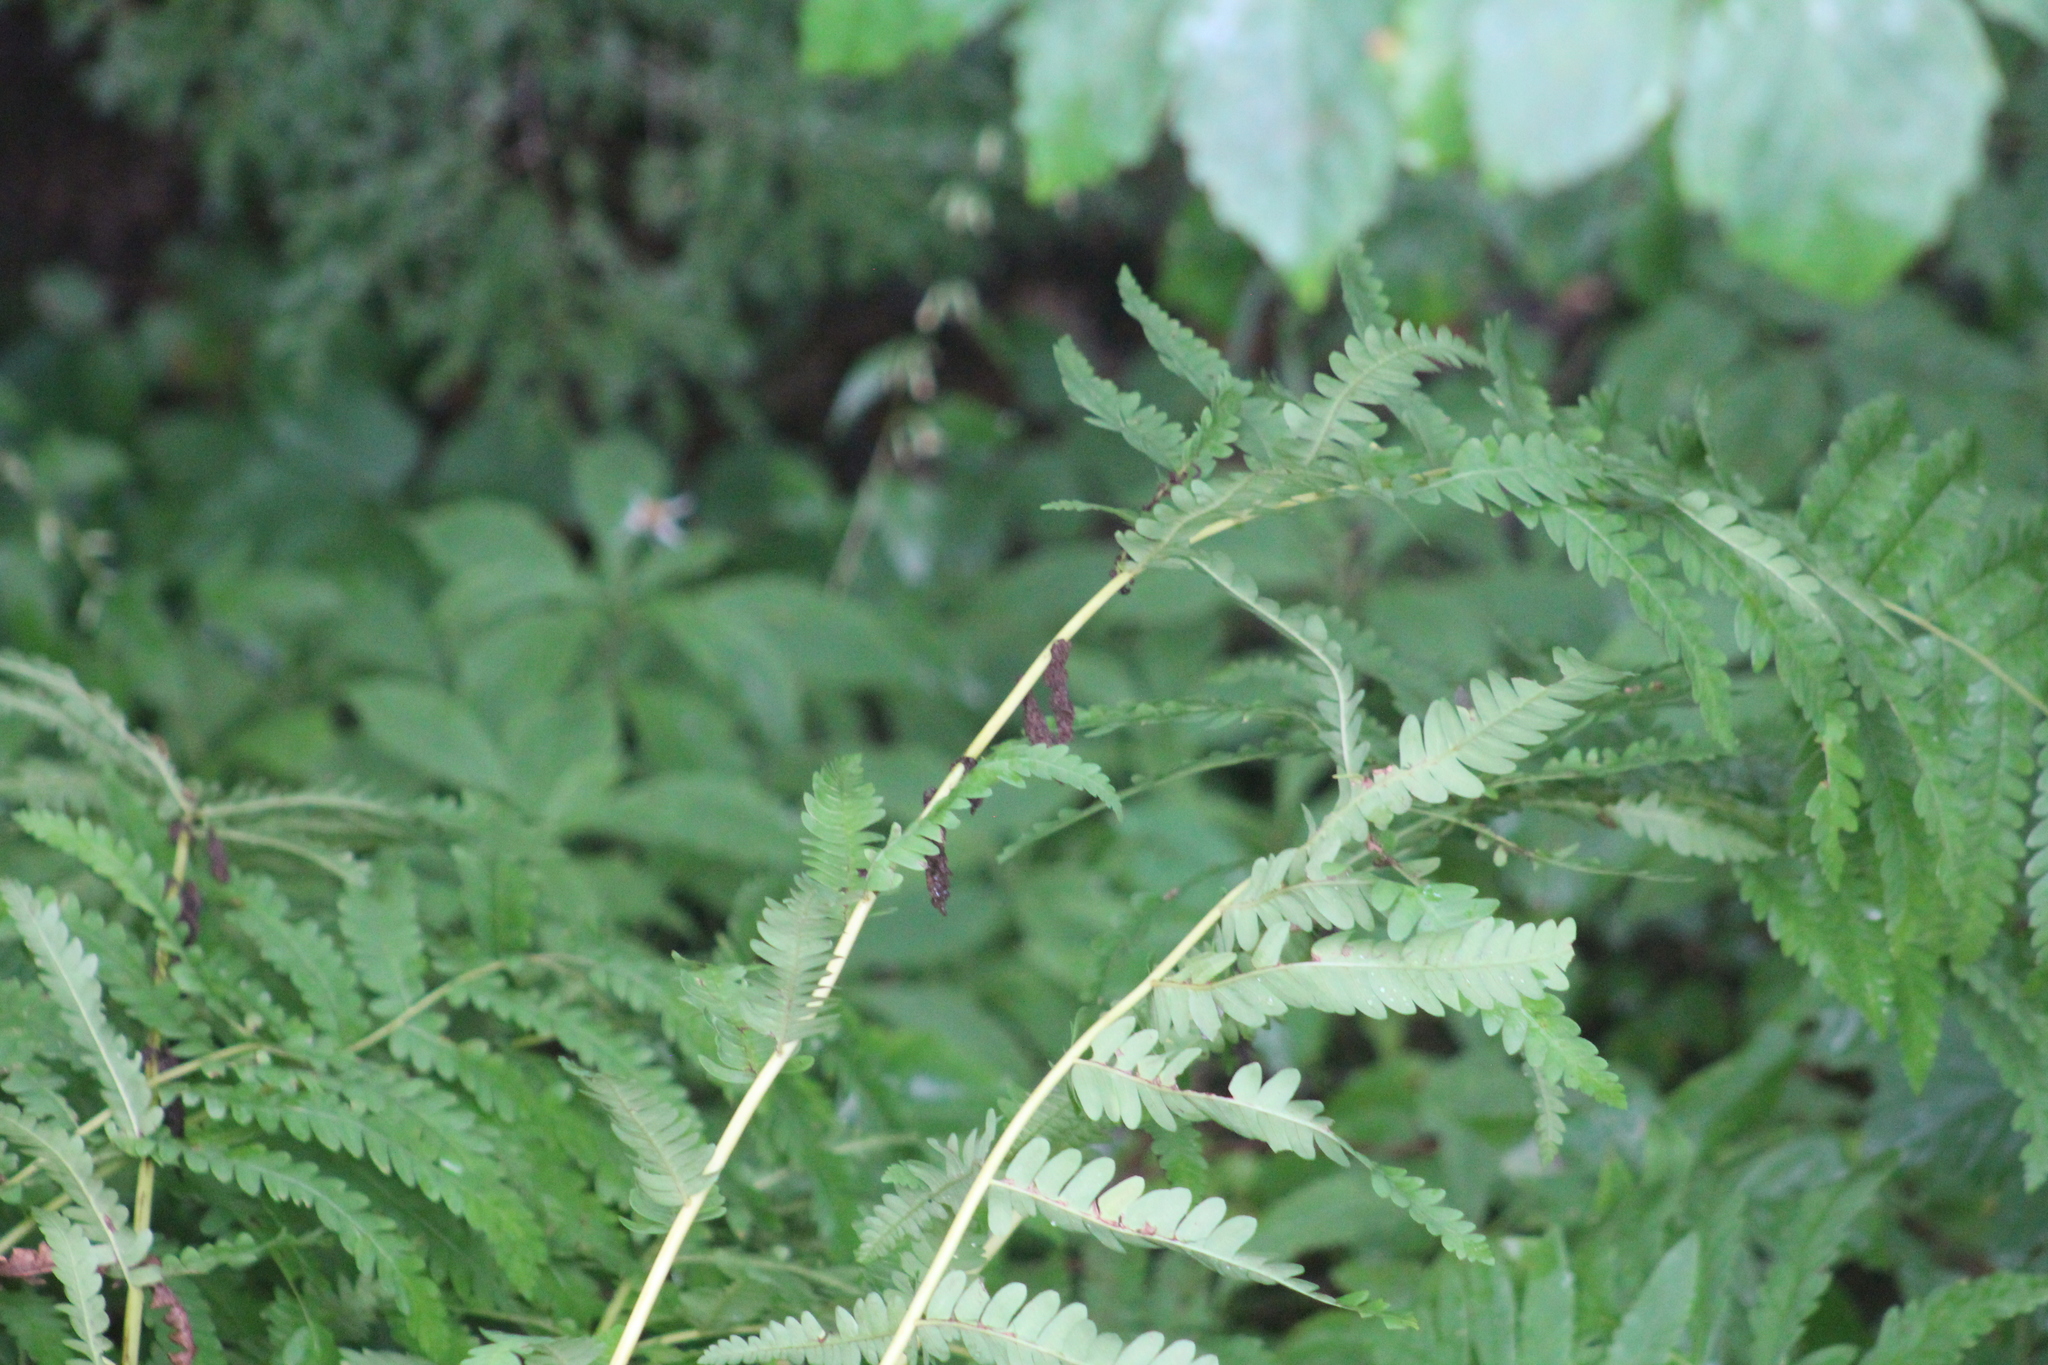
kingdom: Plantae
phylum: Tracheophyta
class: Polypodiopsida
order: Osmundales
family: Osmundaceae
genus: Claytosmunda
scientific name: Claytosmunda claytoniana
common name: Clayton's fern
